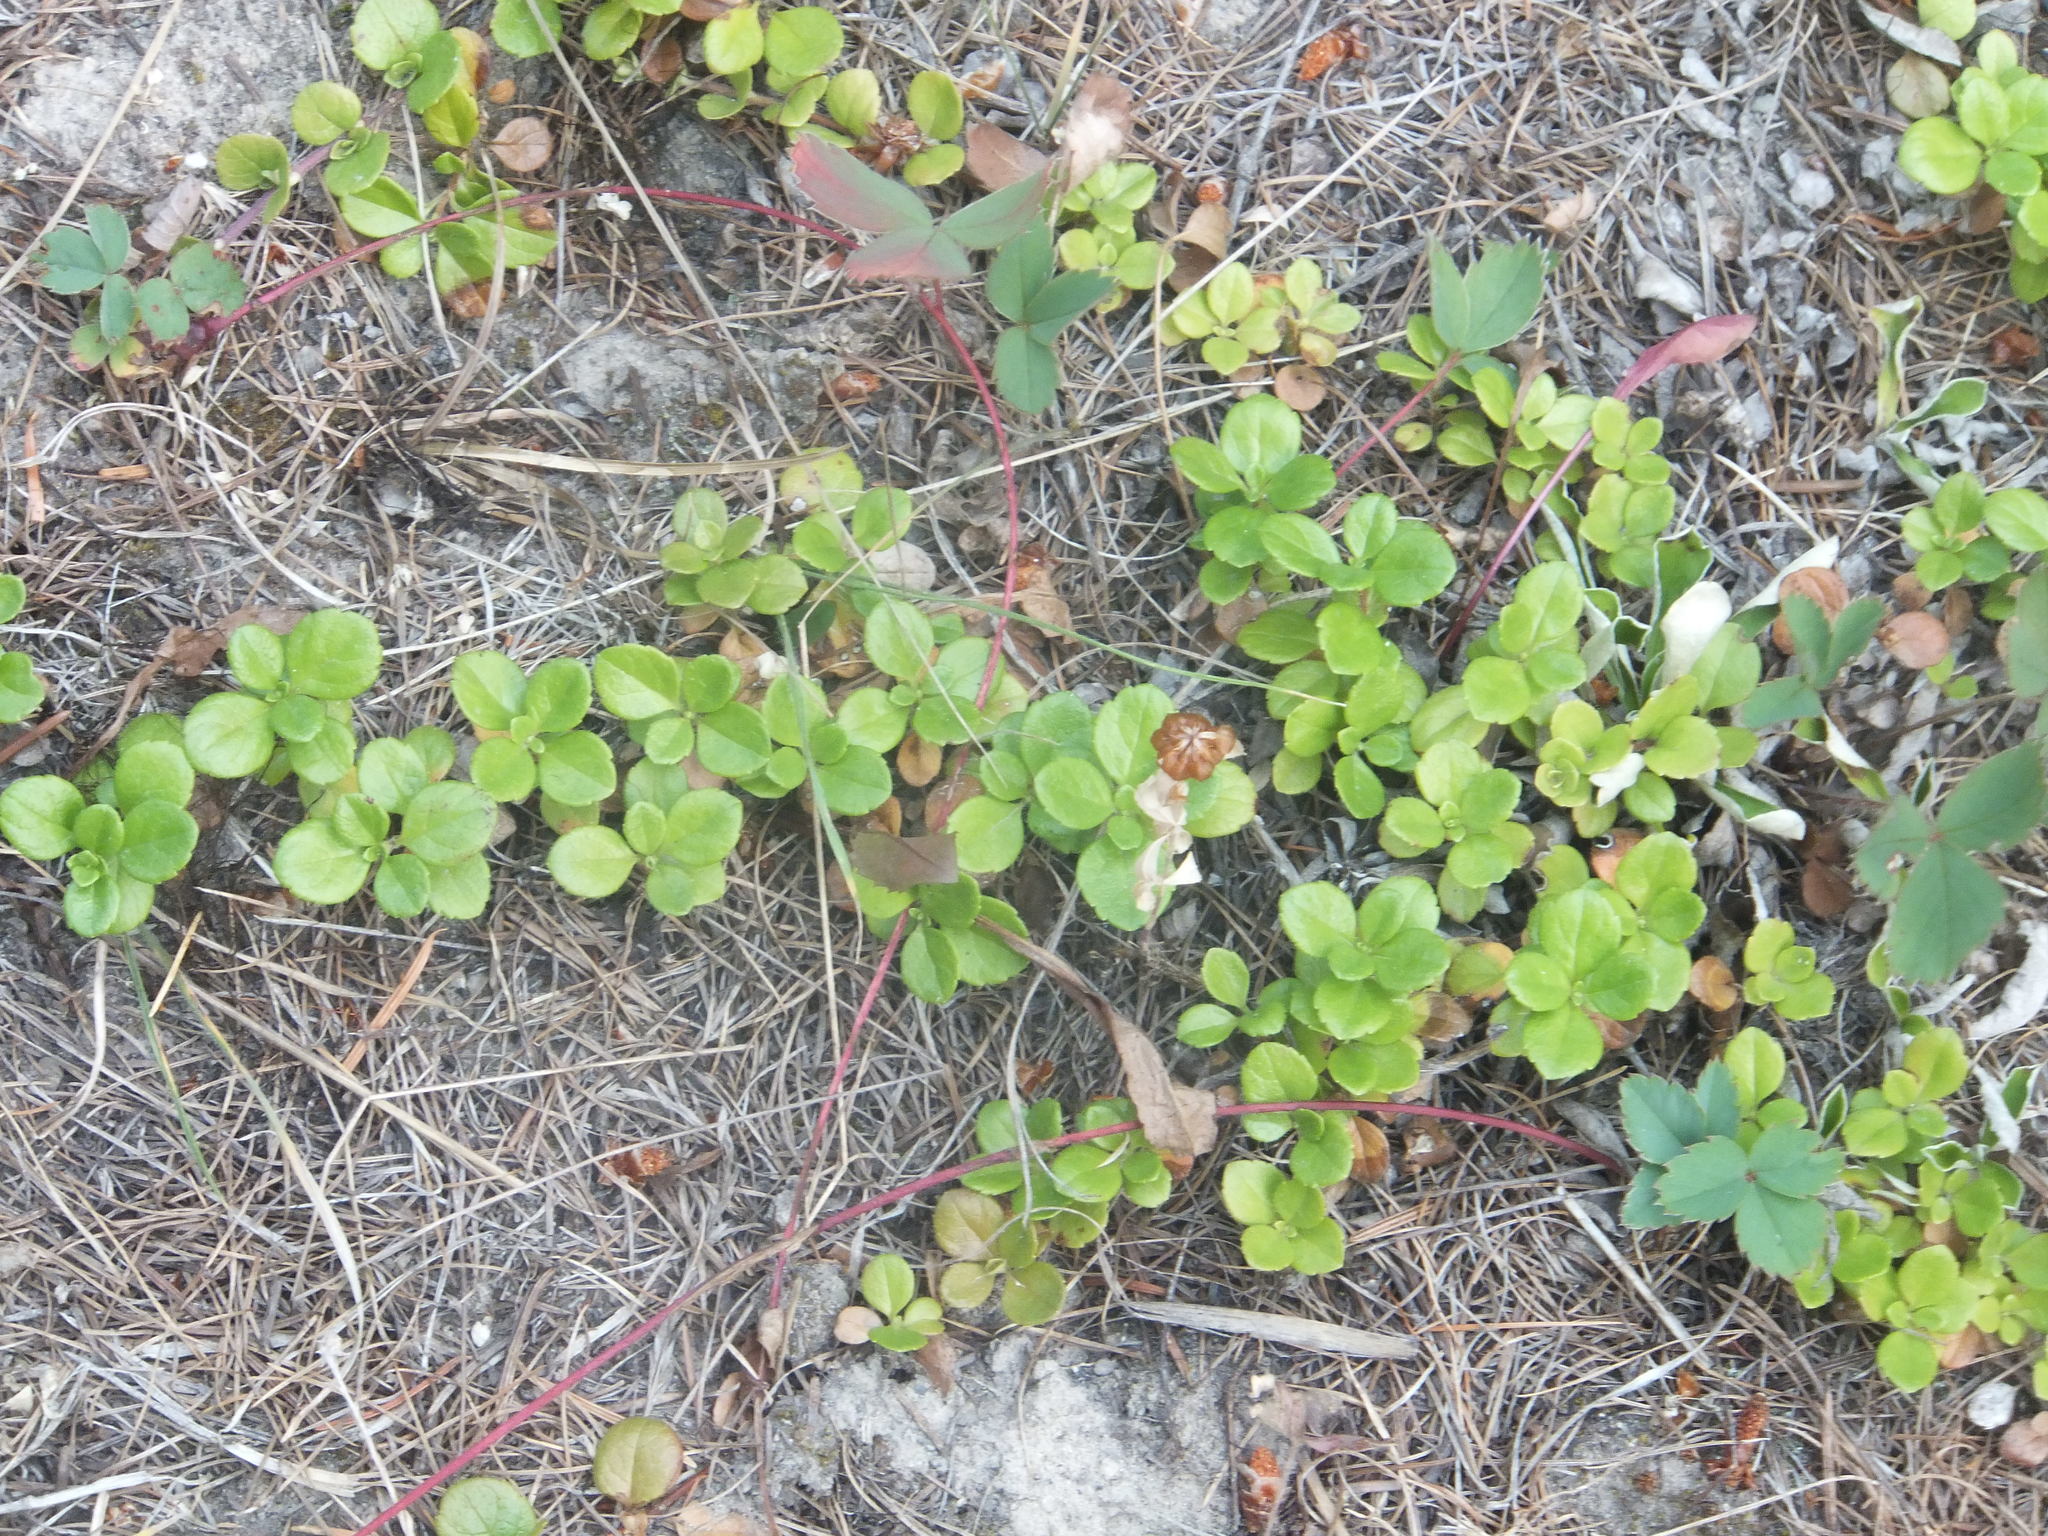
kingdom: Plantae
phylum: Tracheophyta
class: Magnoliopsida
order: Dipsacales
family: Caprifoliaceae
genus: Linnaea
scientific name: Linnaea borealis
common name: Twinflower
